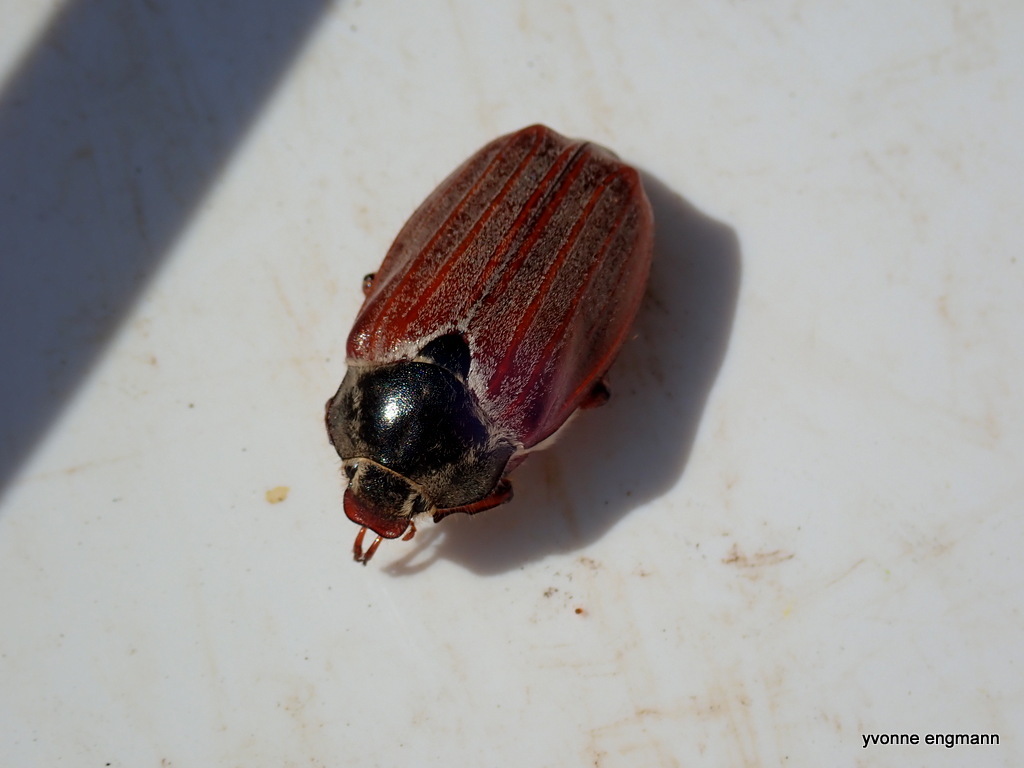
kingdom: Animalia
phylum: Arthropoda
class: Insecta
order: Coleoptera
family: Scarabaeidae
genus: Melolontha
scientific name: Melolontha melolontha
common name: Cockchafer maybeetle
